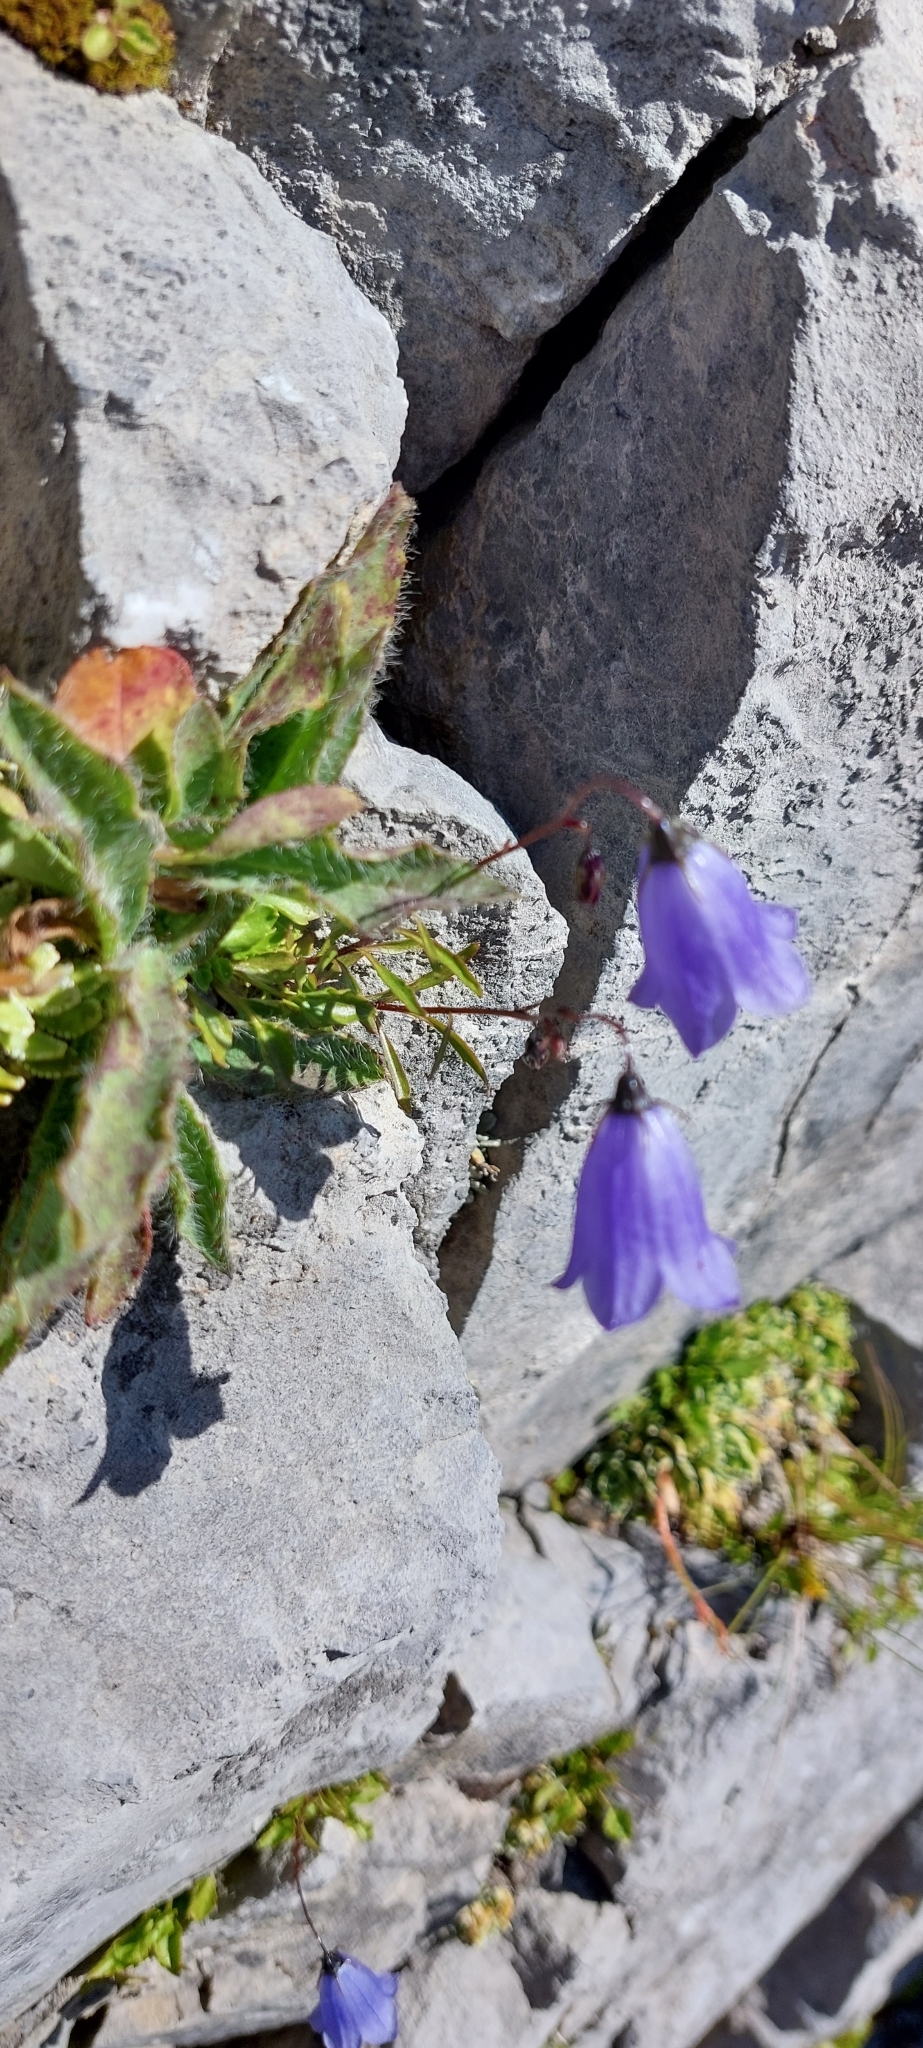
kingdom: Plantae
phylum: Tracheophyta
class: Magnoliopsida
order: Asterales
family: Campanulaceae
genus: Campanula
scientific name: Campanula cochleariifolia
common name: Fairies'-thimbles
